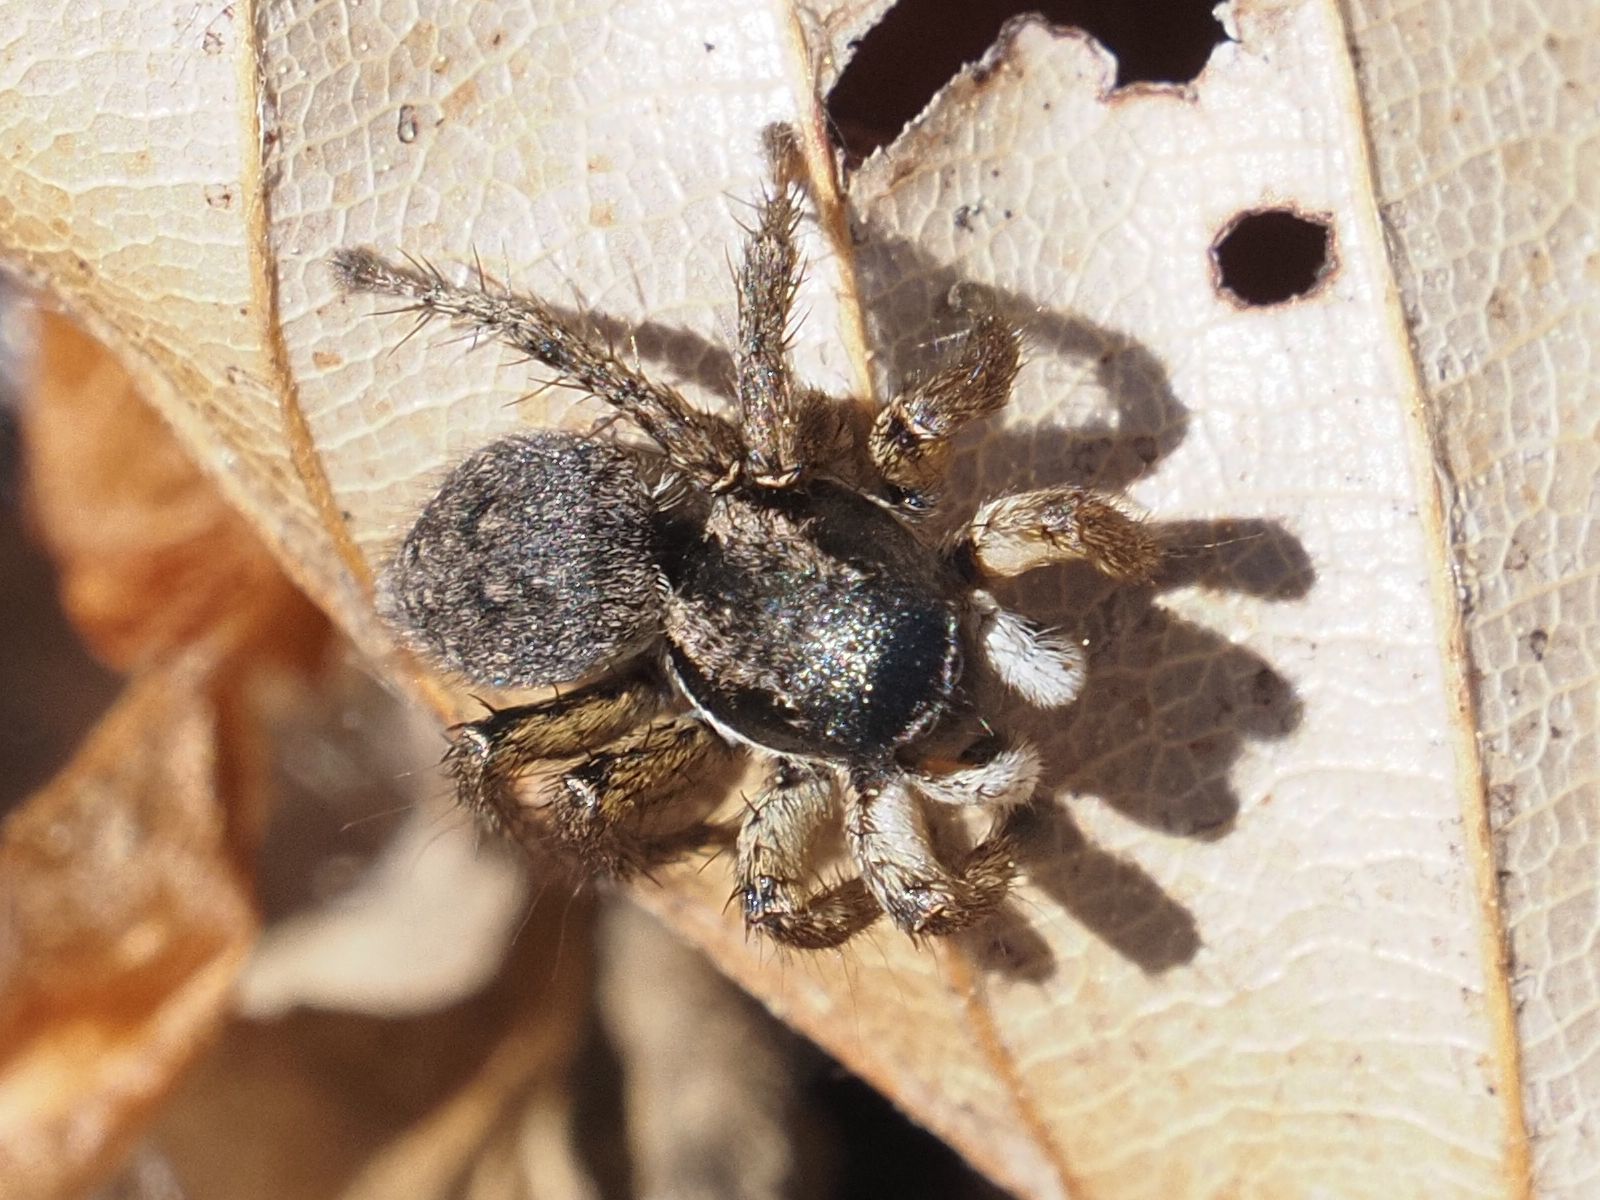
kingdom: Animalia
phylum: Arthropoda
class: Arachnida
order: Araneae
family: Salticidae
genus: Asianellus
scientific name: Asianellus festivus
